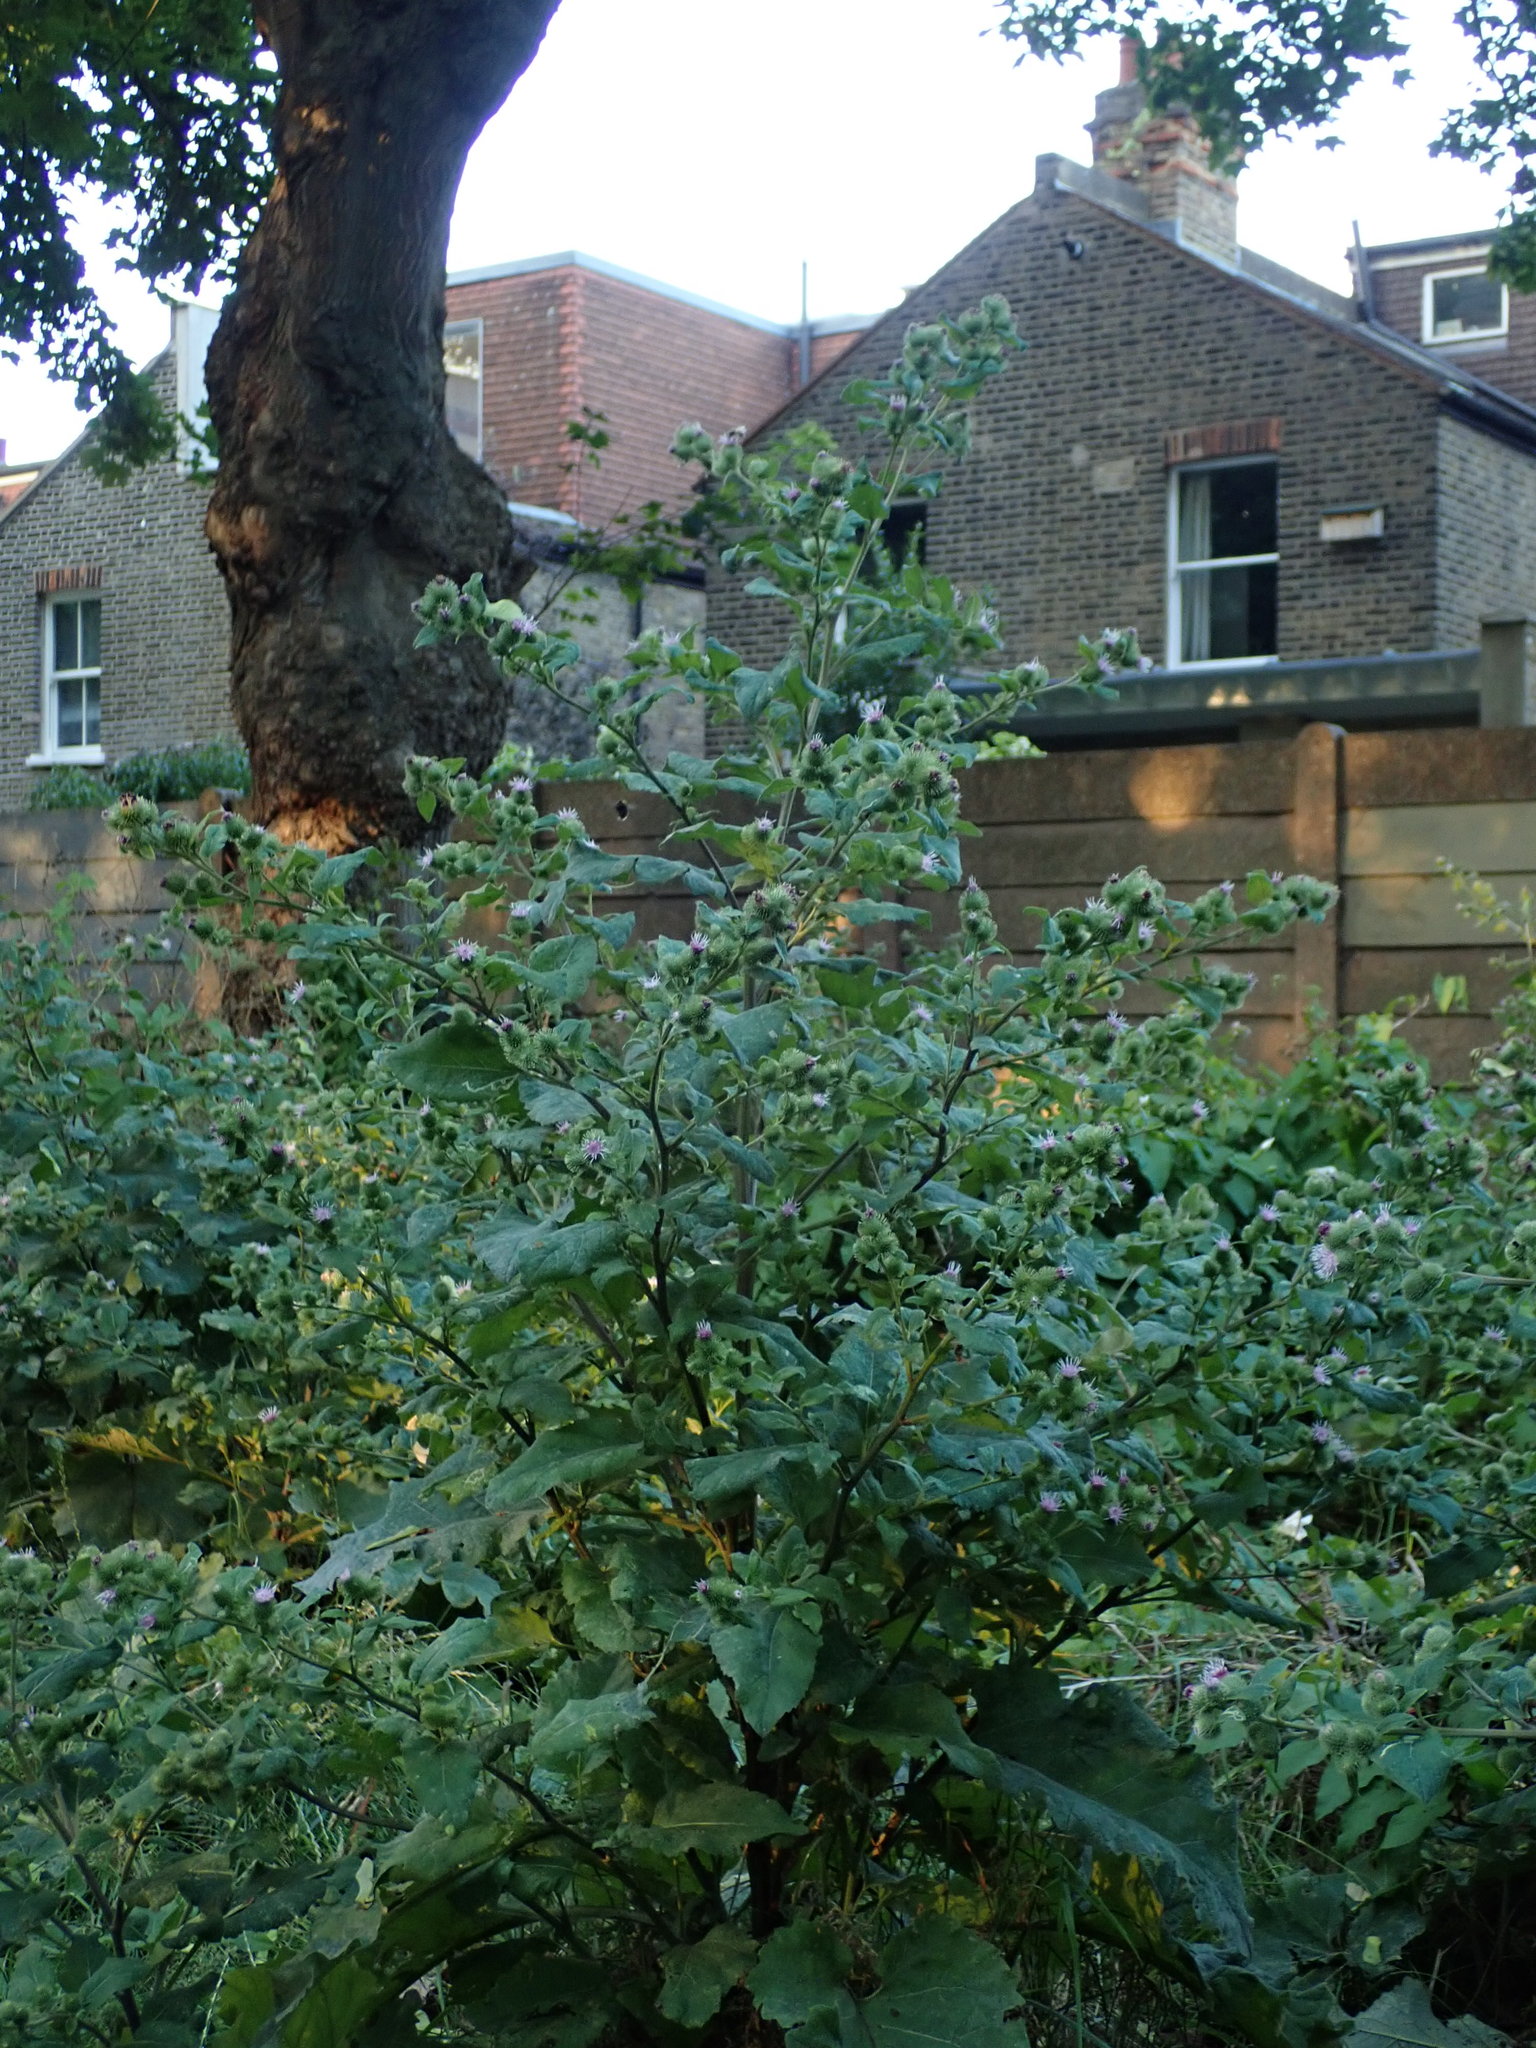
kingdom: Plantae
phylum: Tracheophyta
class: Magnoliopsida
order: Asterales
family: Asteraceae
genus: Arctium
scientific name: Arctium minus
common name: Lesser burdock
